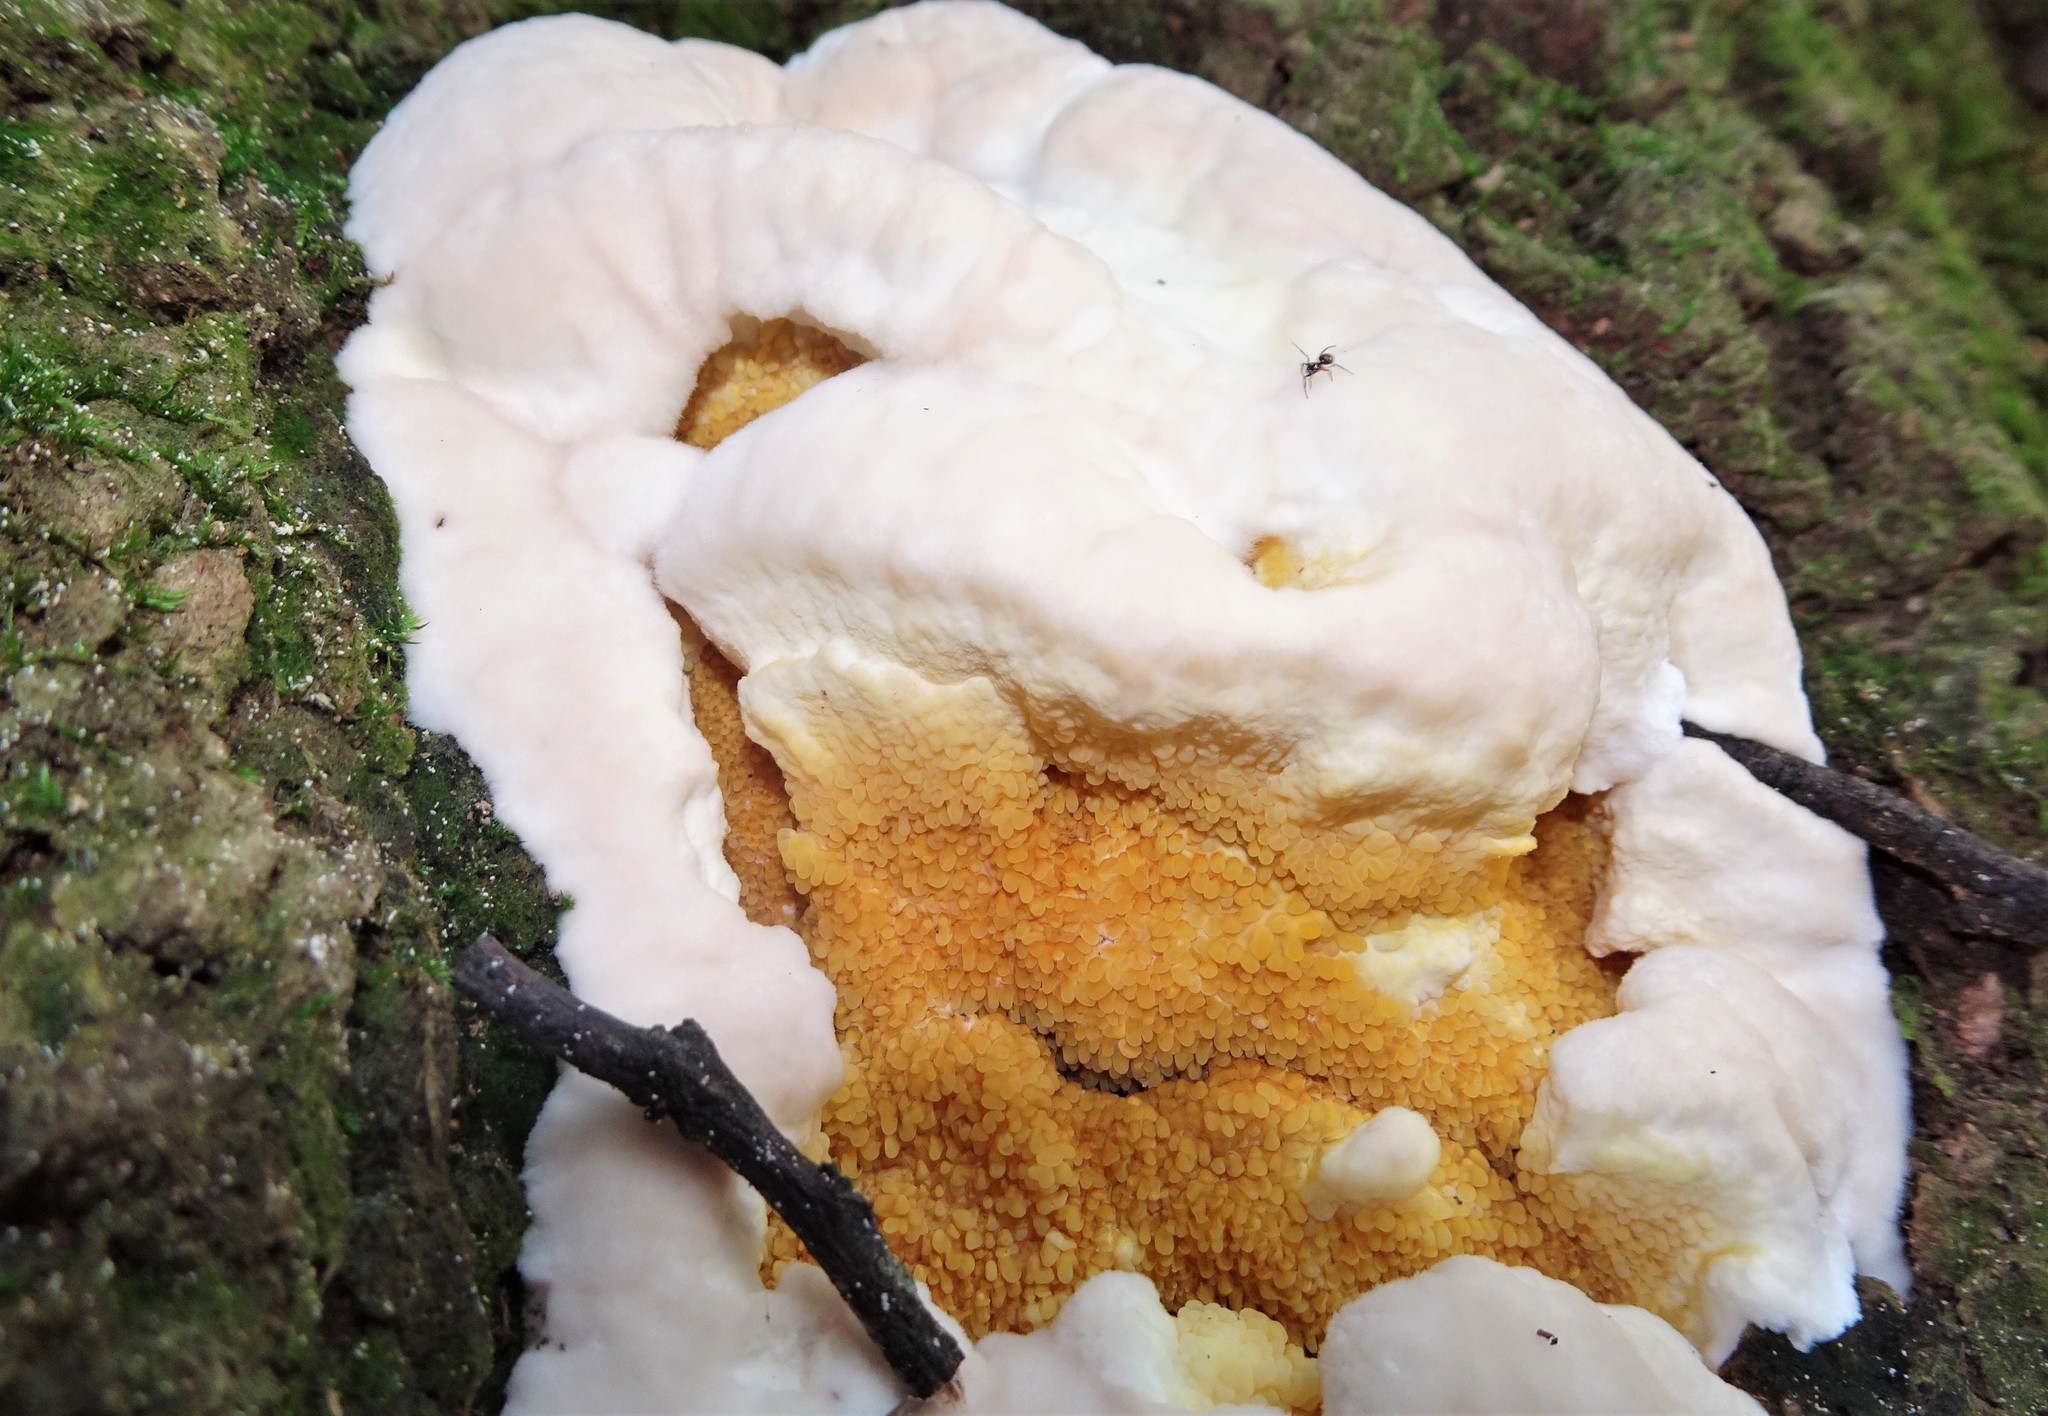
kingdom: Fungi
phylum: Basidiomycota
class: Agaricomycetes
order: Boletales
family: Coniophoraceae
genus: Gyrodontium
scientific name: Gyrodontium sacchari
